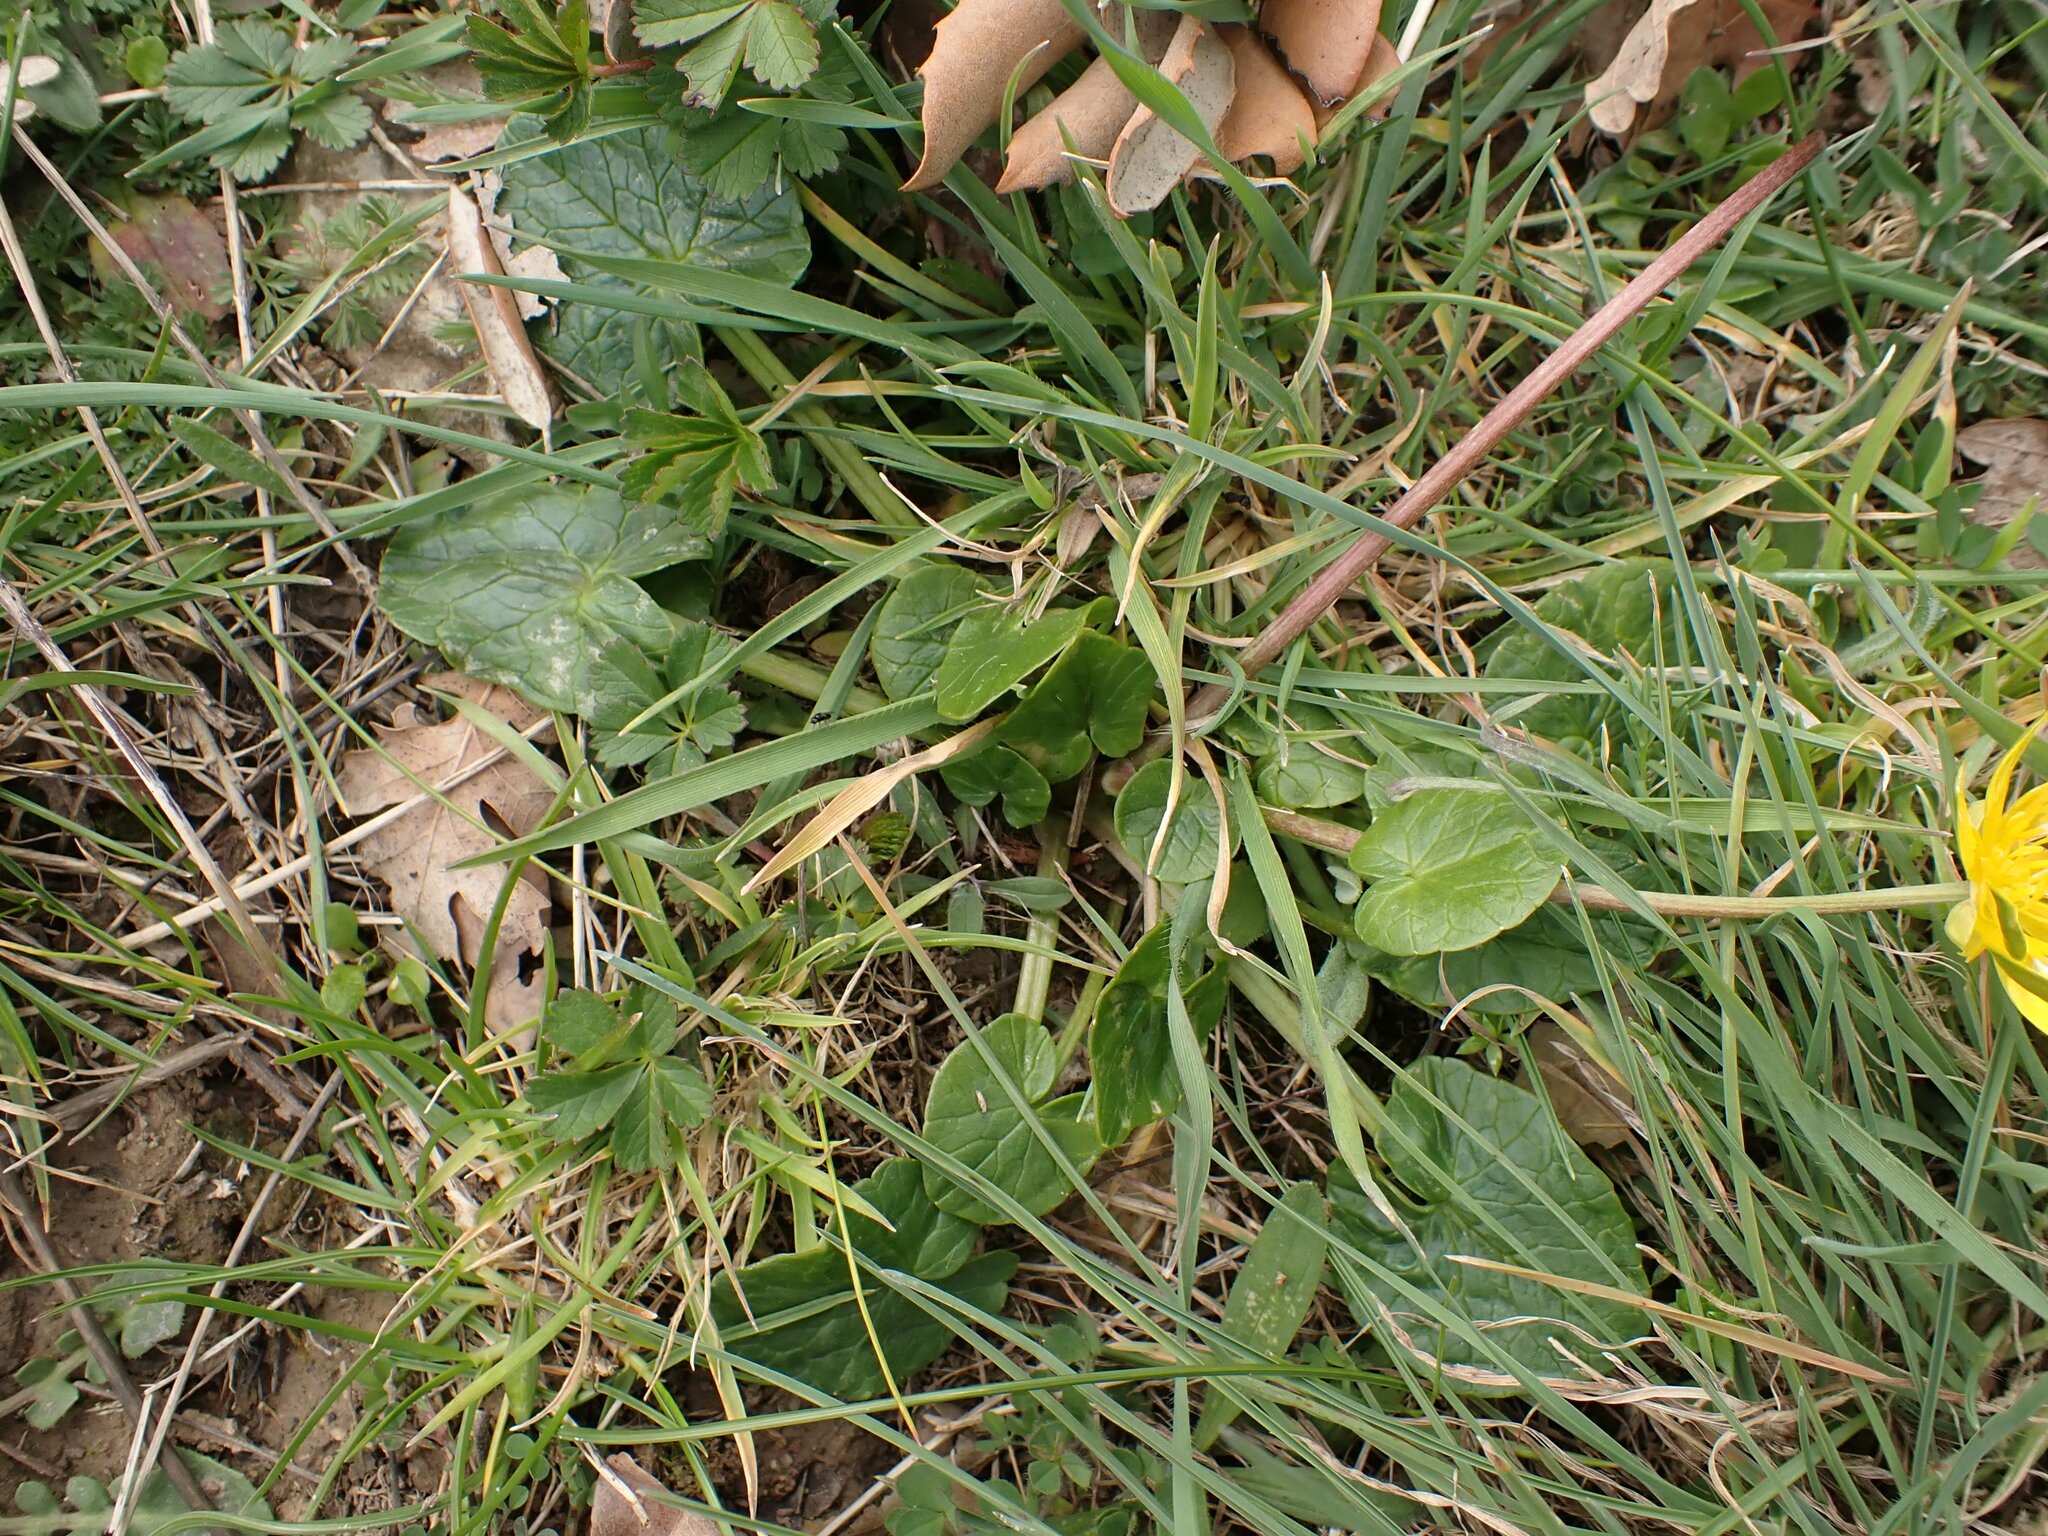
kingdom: Plantae
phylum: Tracheophyta
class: Magnoliopsida
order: Ranunculales
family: Ranunculaceae
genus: Ficaria
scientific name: Ficaria verna
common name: Lesser celandine
